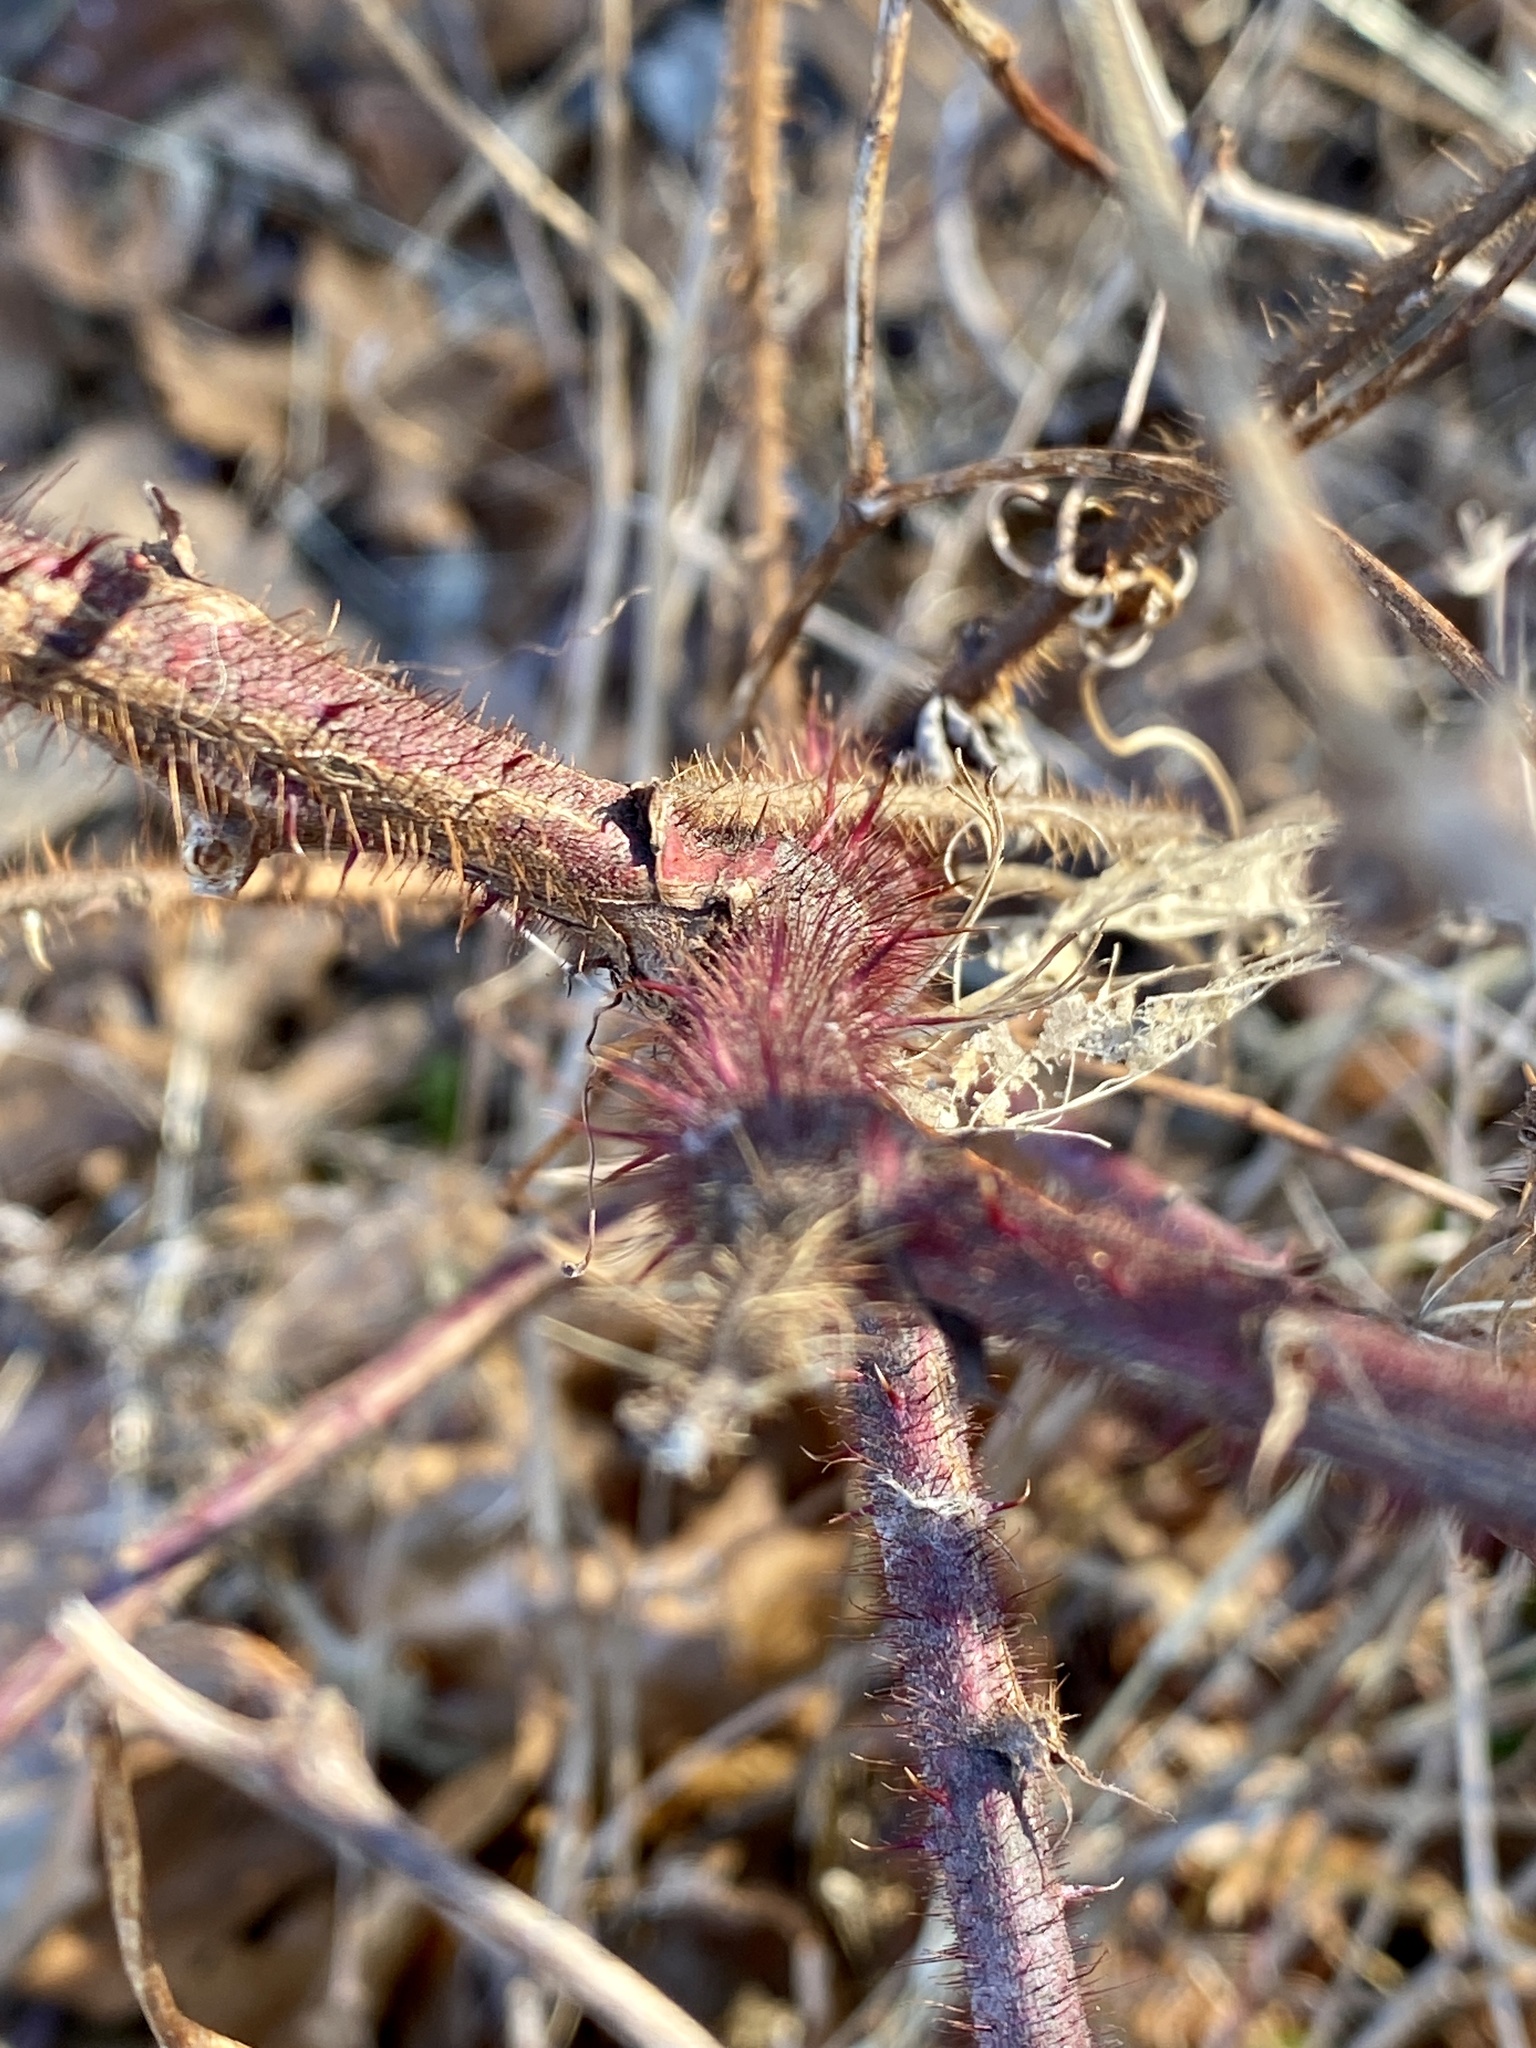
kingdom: Plantae
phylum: Tracheophyta
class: Magnoliopsida
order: Rosales
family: Rosaceae
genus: Rubus
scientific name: Rubus phoenicolasius
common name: Japanese wineberry
